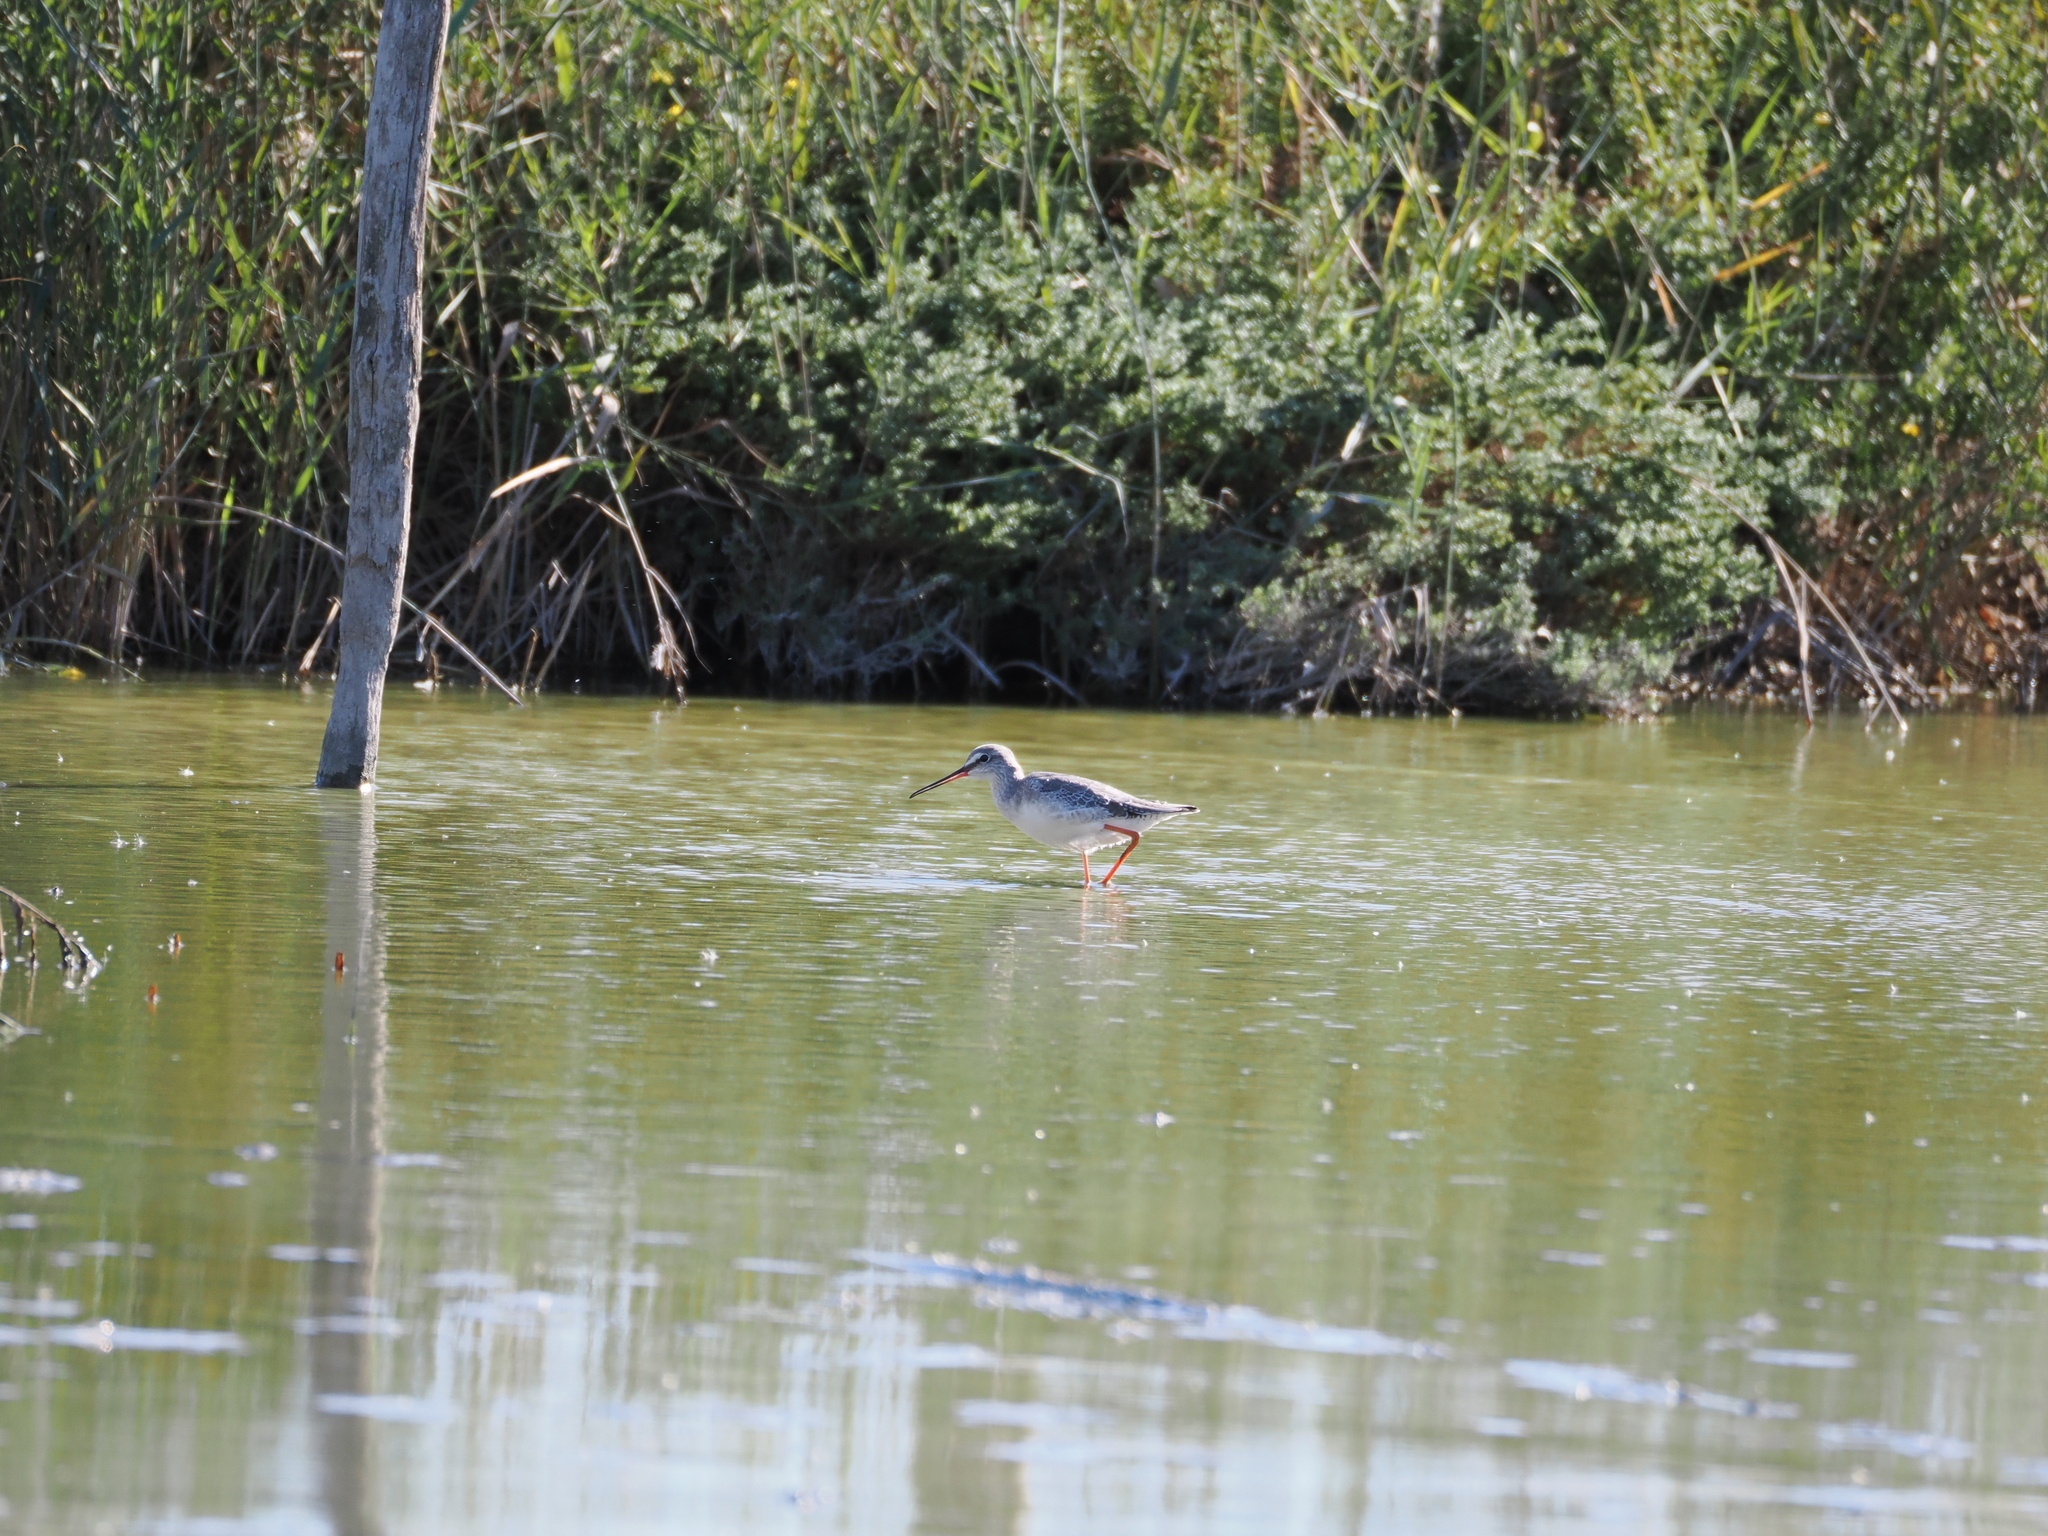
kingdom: Animalia
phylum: Chordata
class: Aves
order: Charadriiformes
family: Scolopacidae
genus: Tringa
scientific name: Tringa erythropus
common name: Spotted redshank
